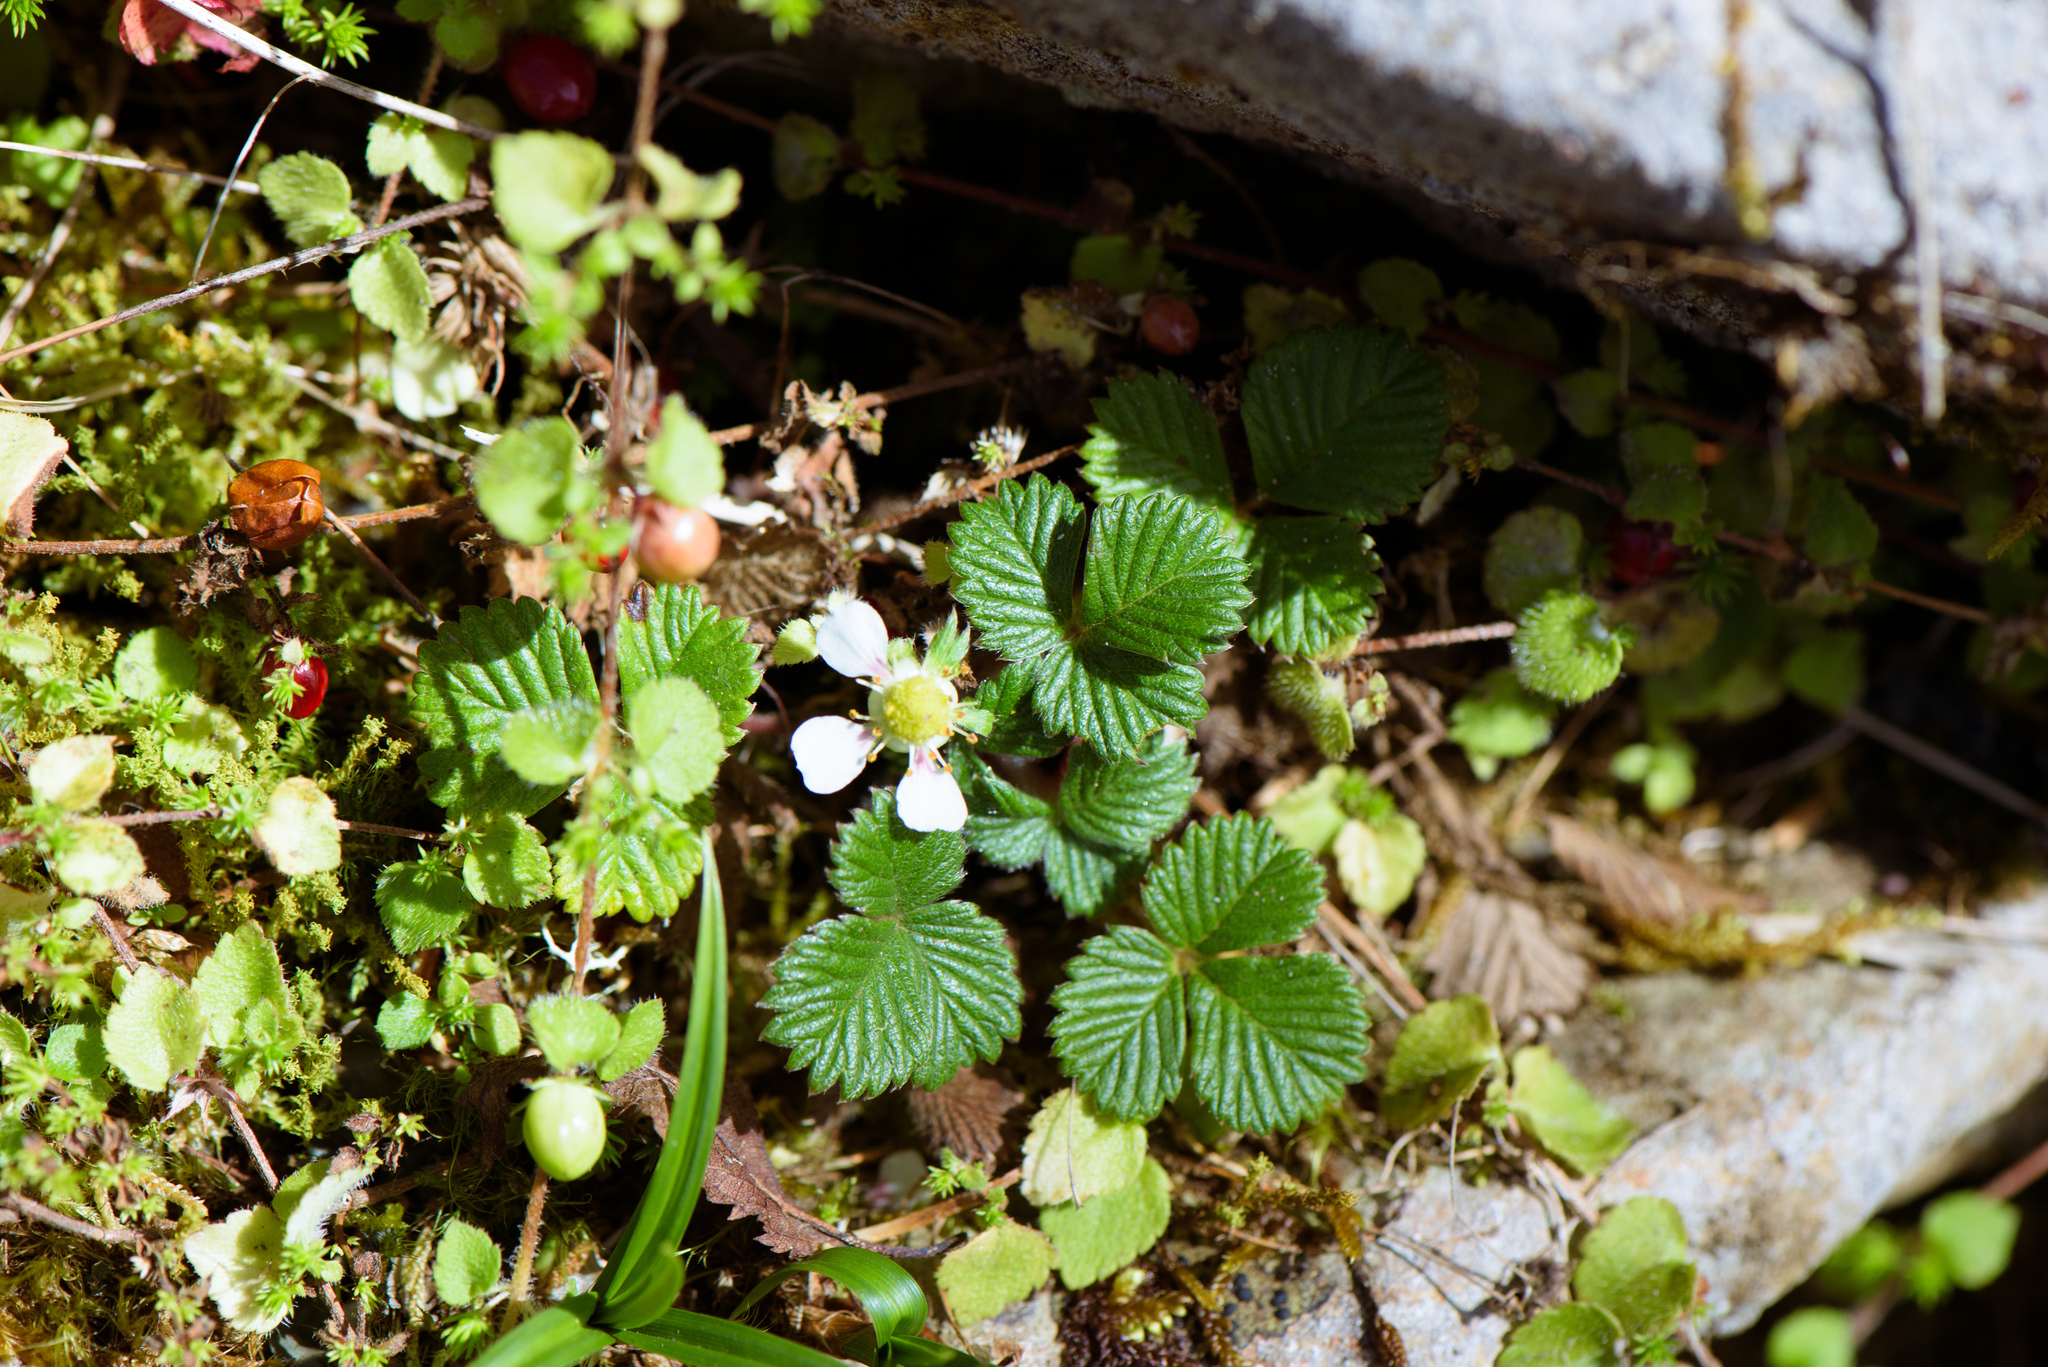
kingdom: Plantae
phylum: Tracheophyta
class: Magnoliopsida
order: Rosales
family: Rosaceae
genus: Fragaria
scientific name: Fragaria nilgerrensis
